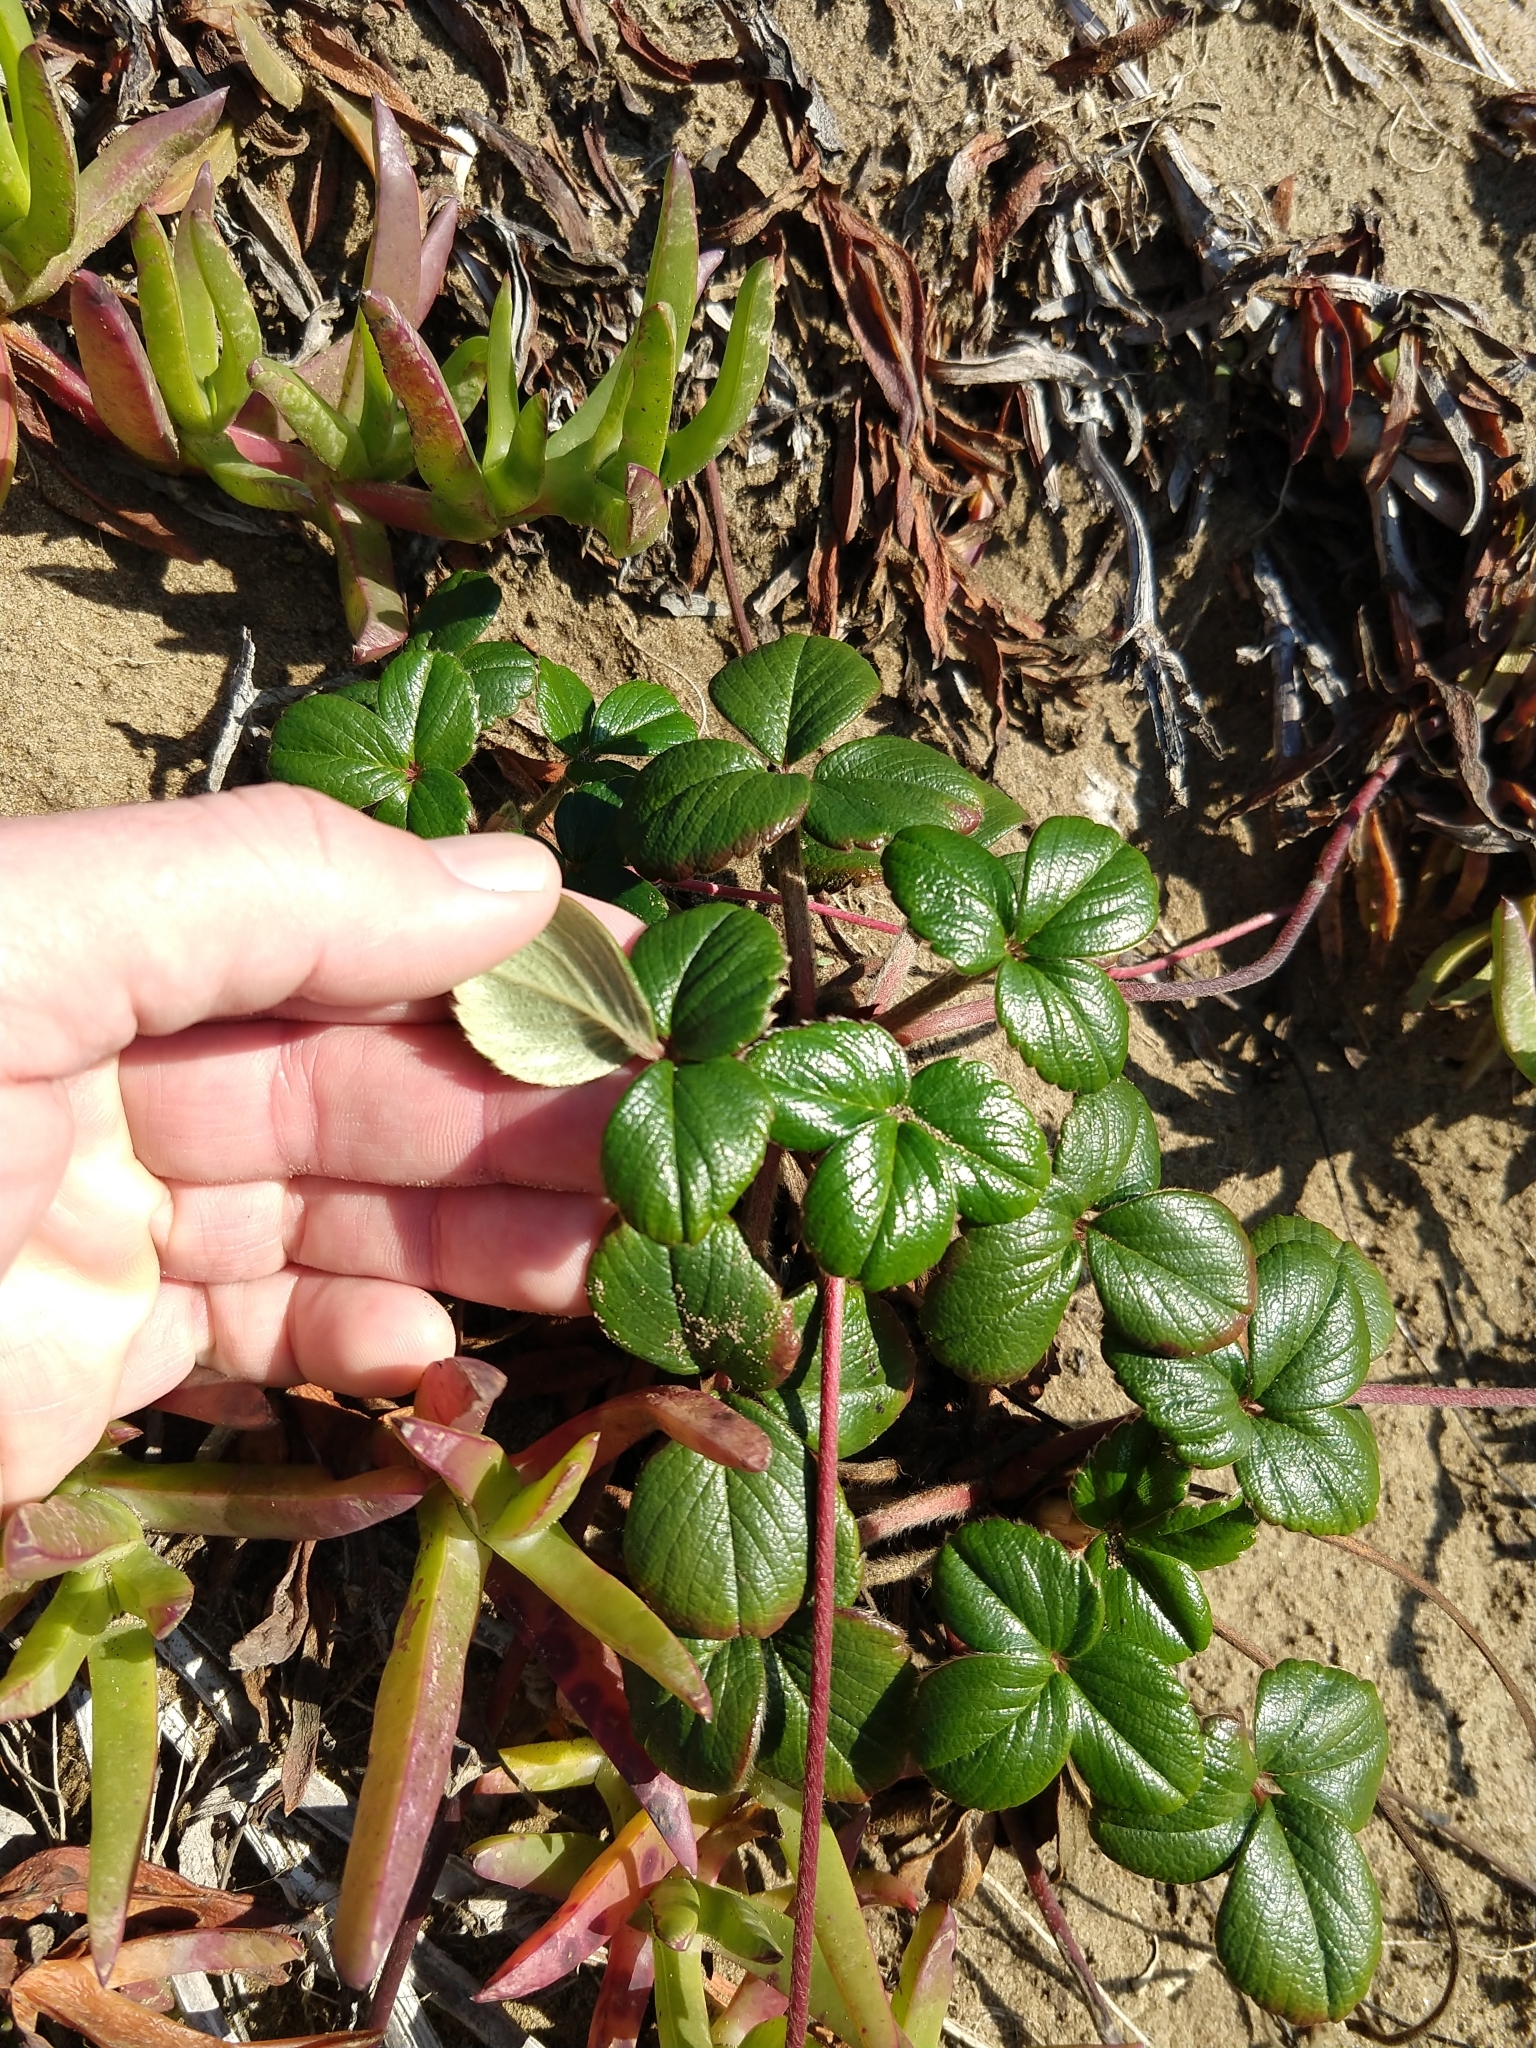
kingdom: Plantae
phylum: Tracheophyta
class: Magnoliopsida
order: Rosales
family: Rosaceae
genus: Fragaria
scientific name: Fragaria chiloensis
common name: Beach strawberry
